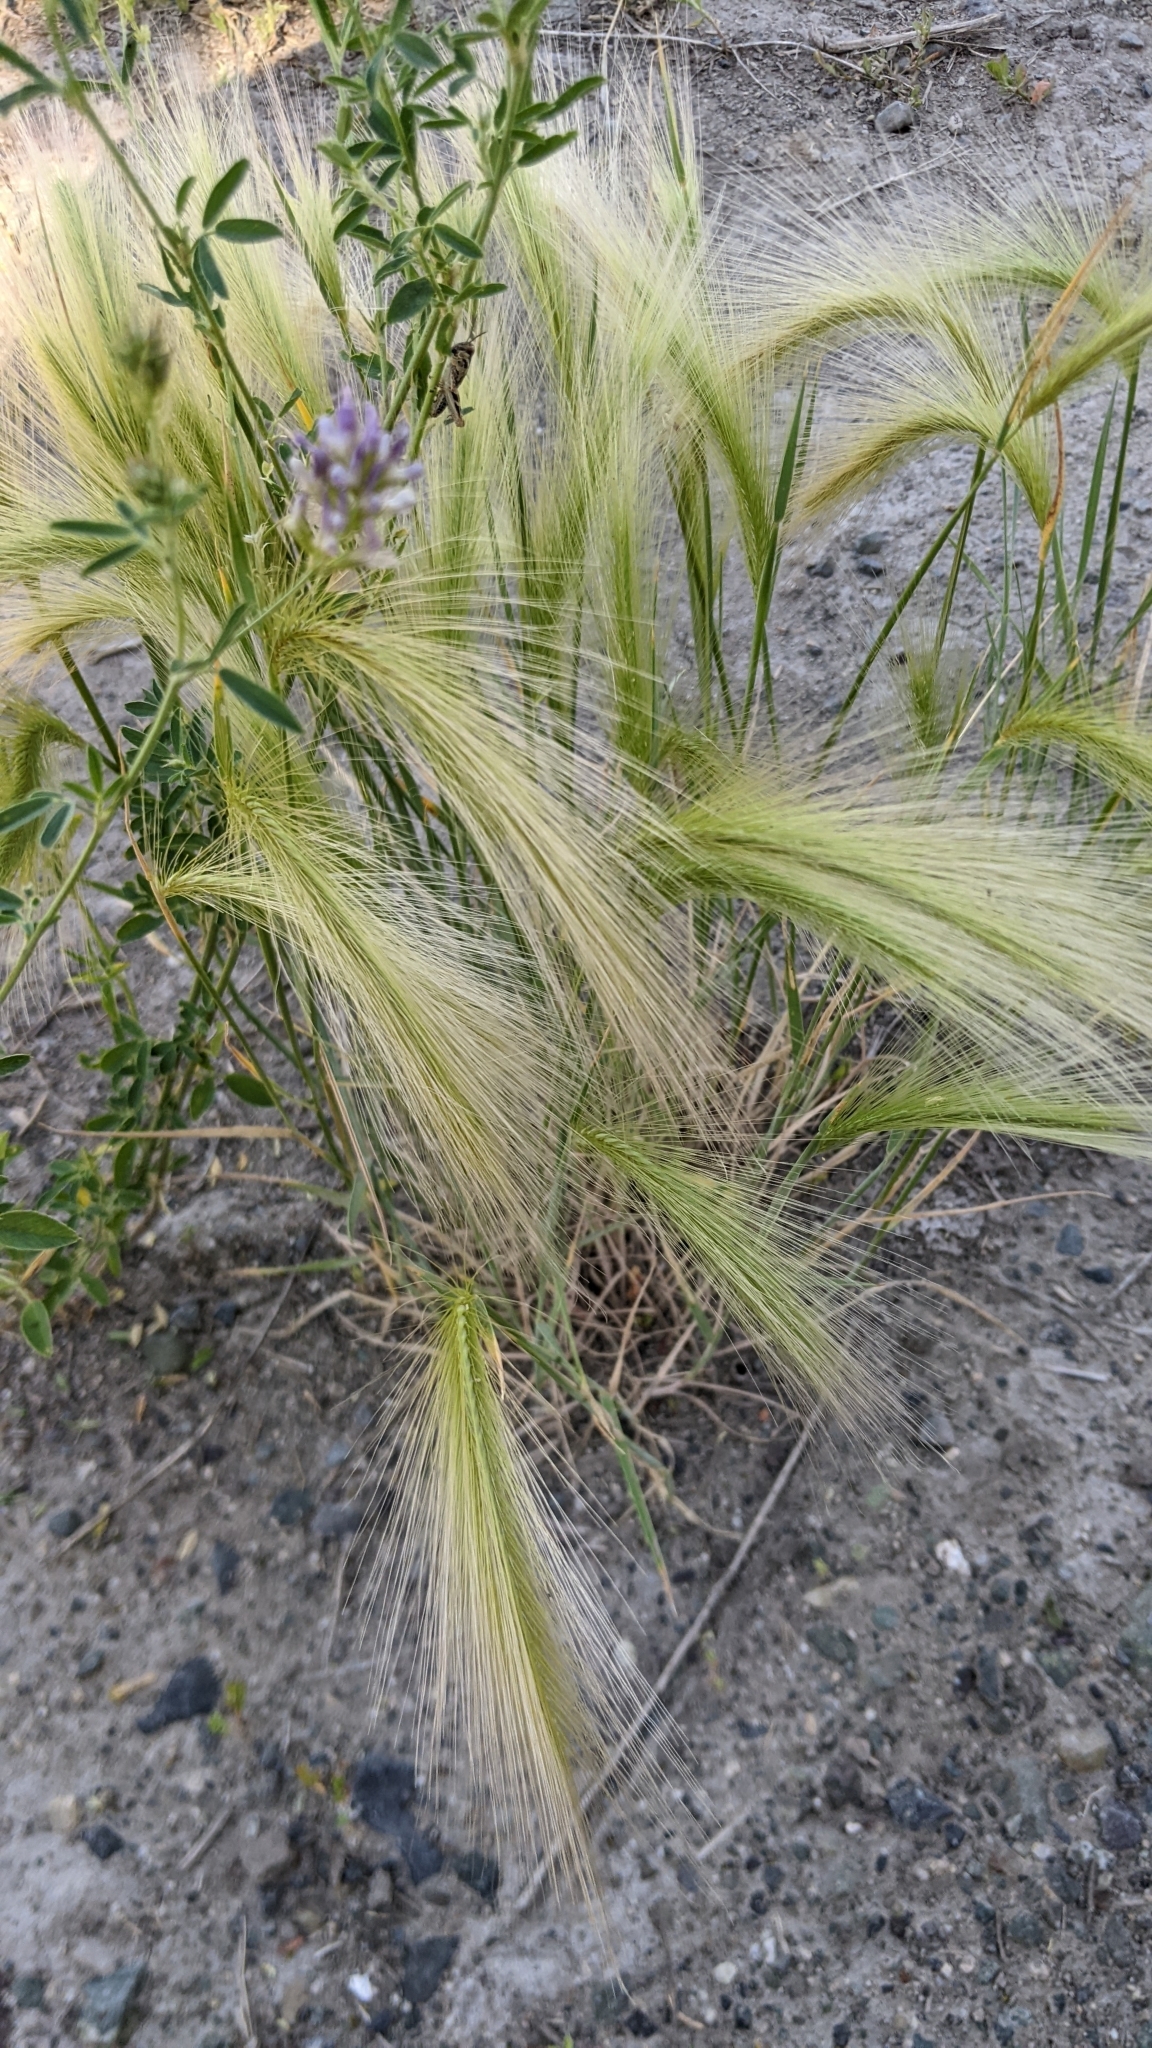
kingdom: Plantae
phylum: Tracheophyta
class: Liliopsida
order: Poales
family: Poaceae
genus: Hordeum
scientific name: Hordeum jubatum
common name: Foxtail barley
